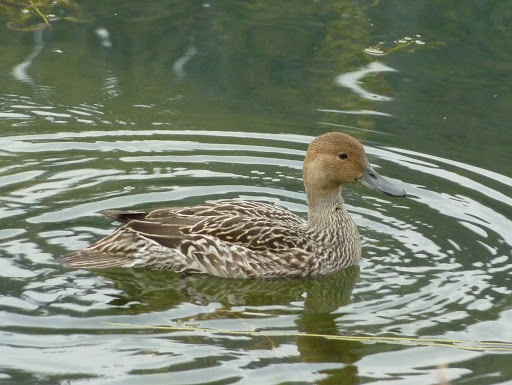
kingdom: Animalia
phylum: Chordata
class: Aves
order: Anseriformes
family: Anatidae
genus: Anas
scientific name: Anas acuta
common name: Northern pintail
